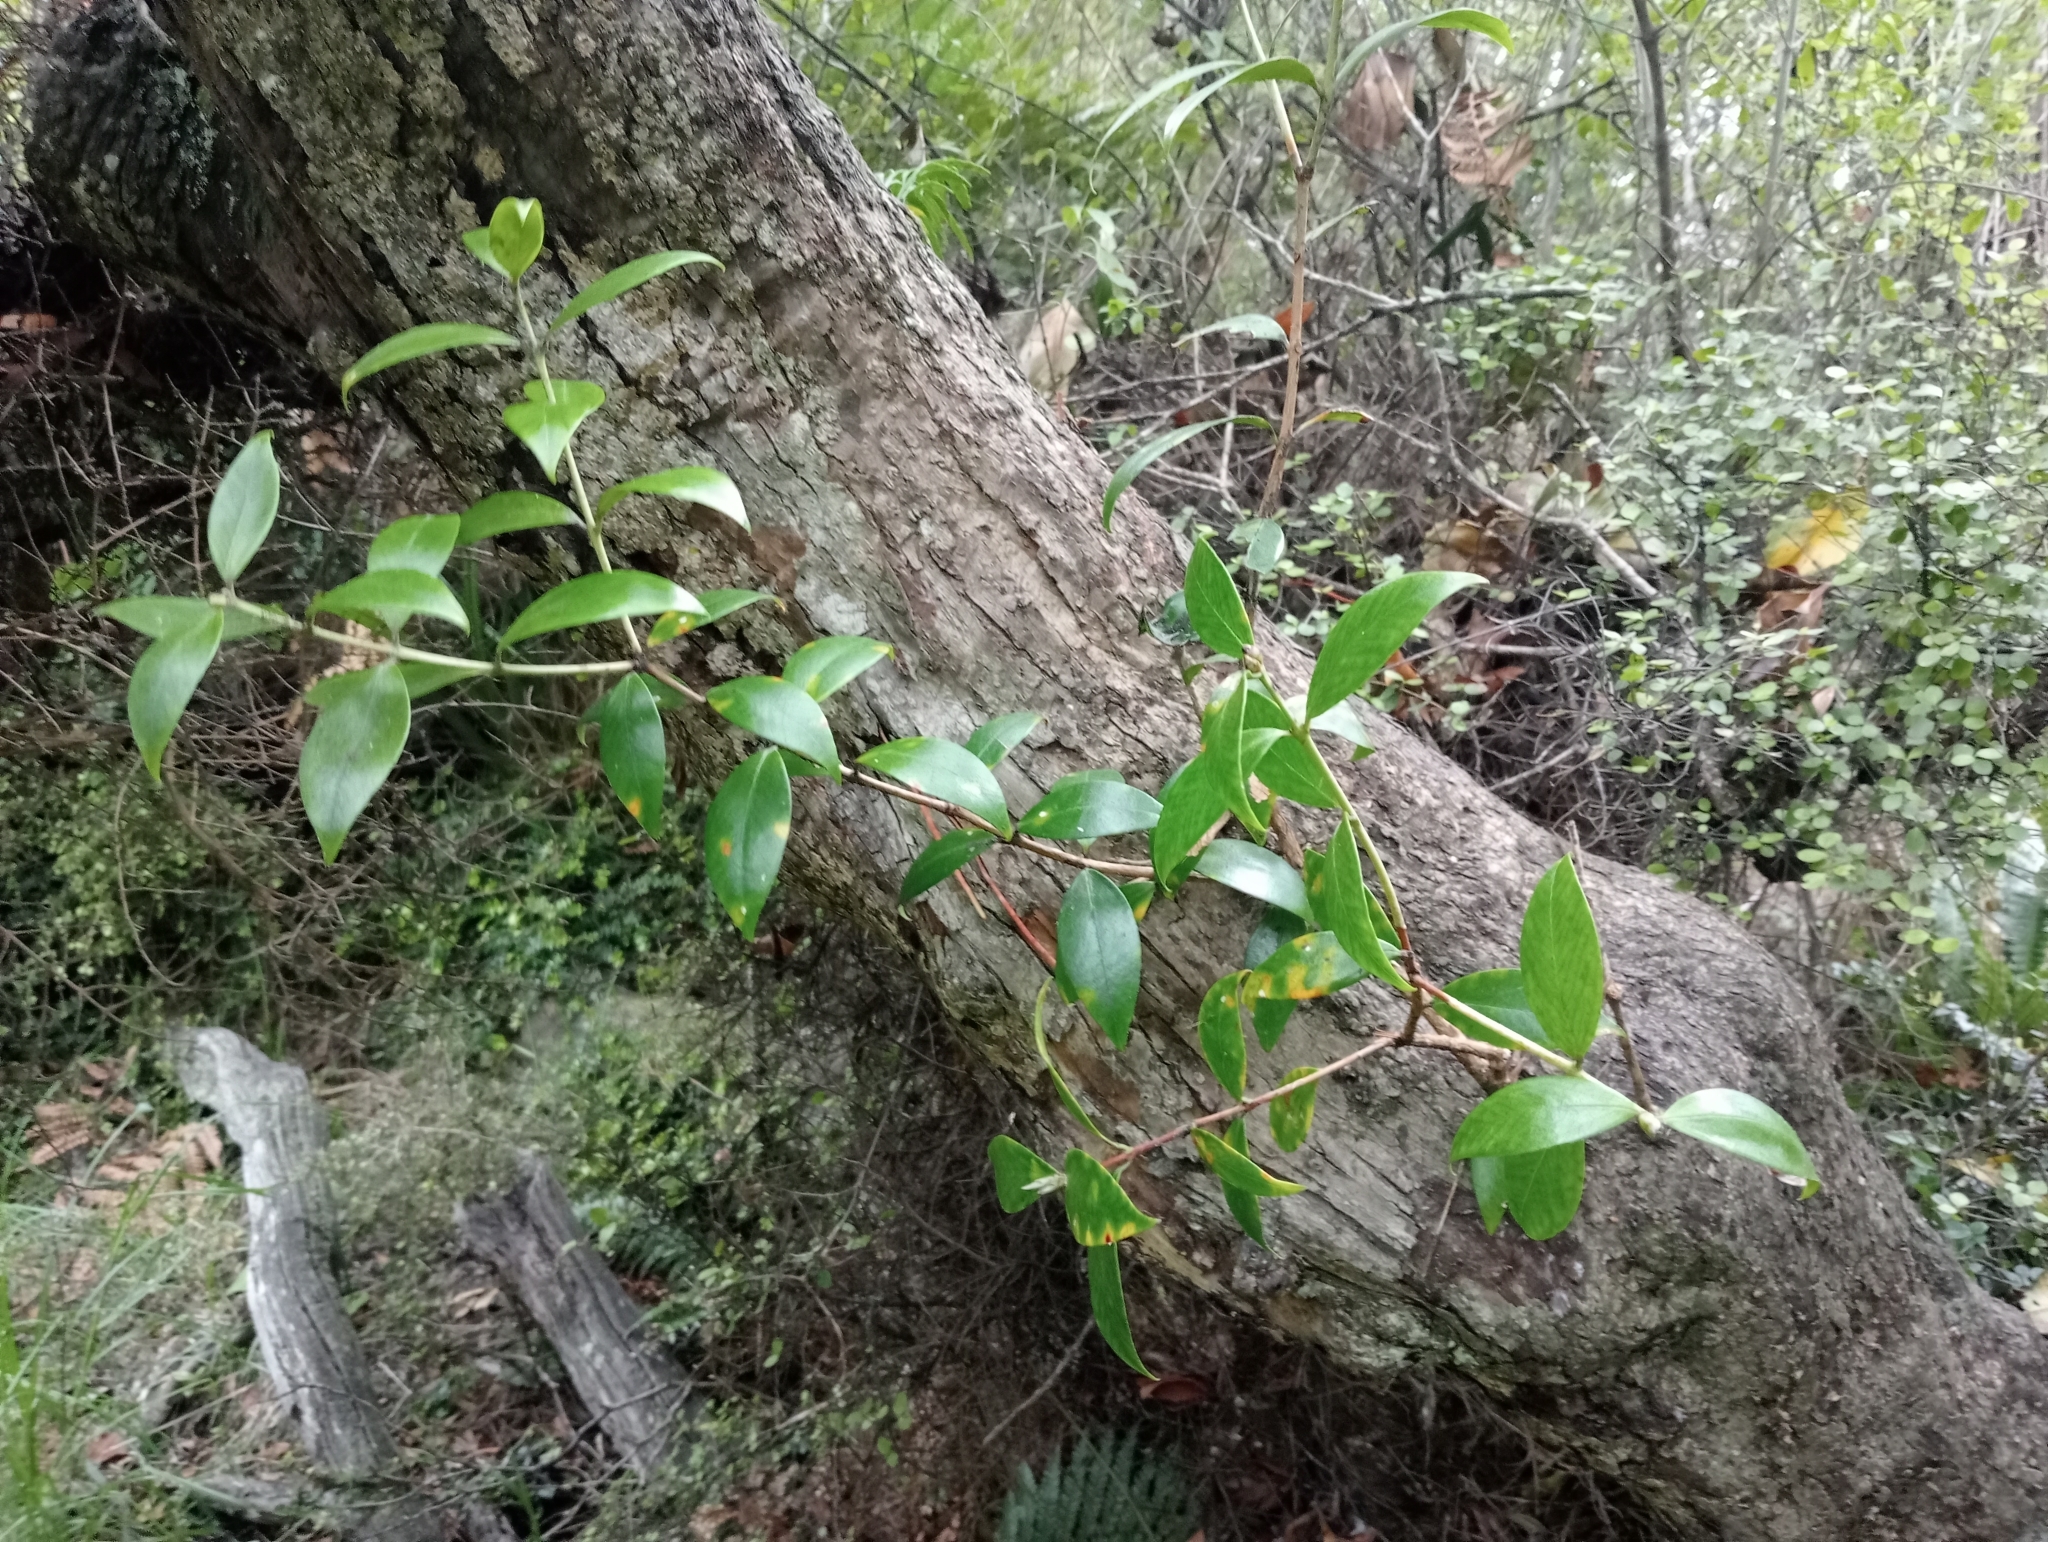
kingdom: Plantae
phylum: Tracheophyta
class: Magnoliopsida
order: Myrtales
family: Myrtaceae
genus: Metrosideros
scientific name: Metrosideros umbellata
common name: Southern rata
